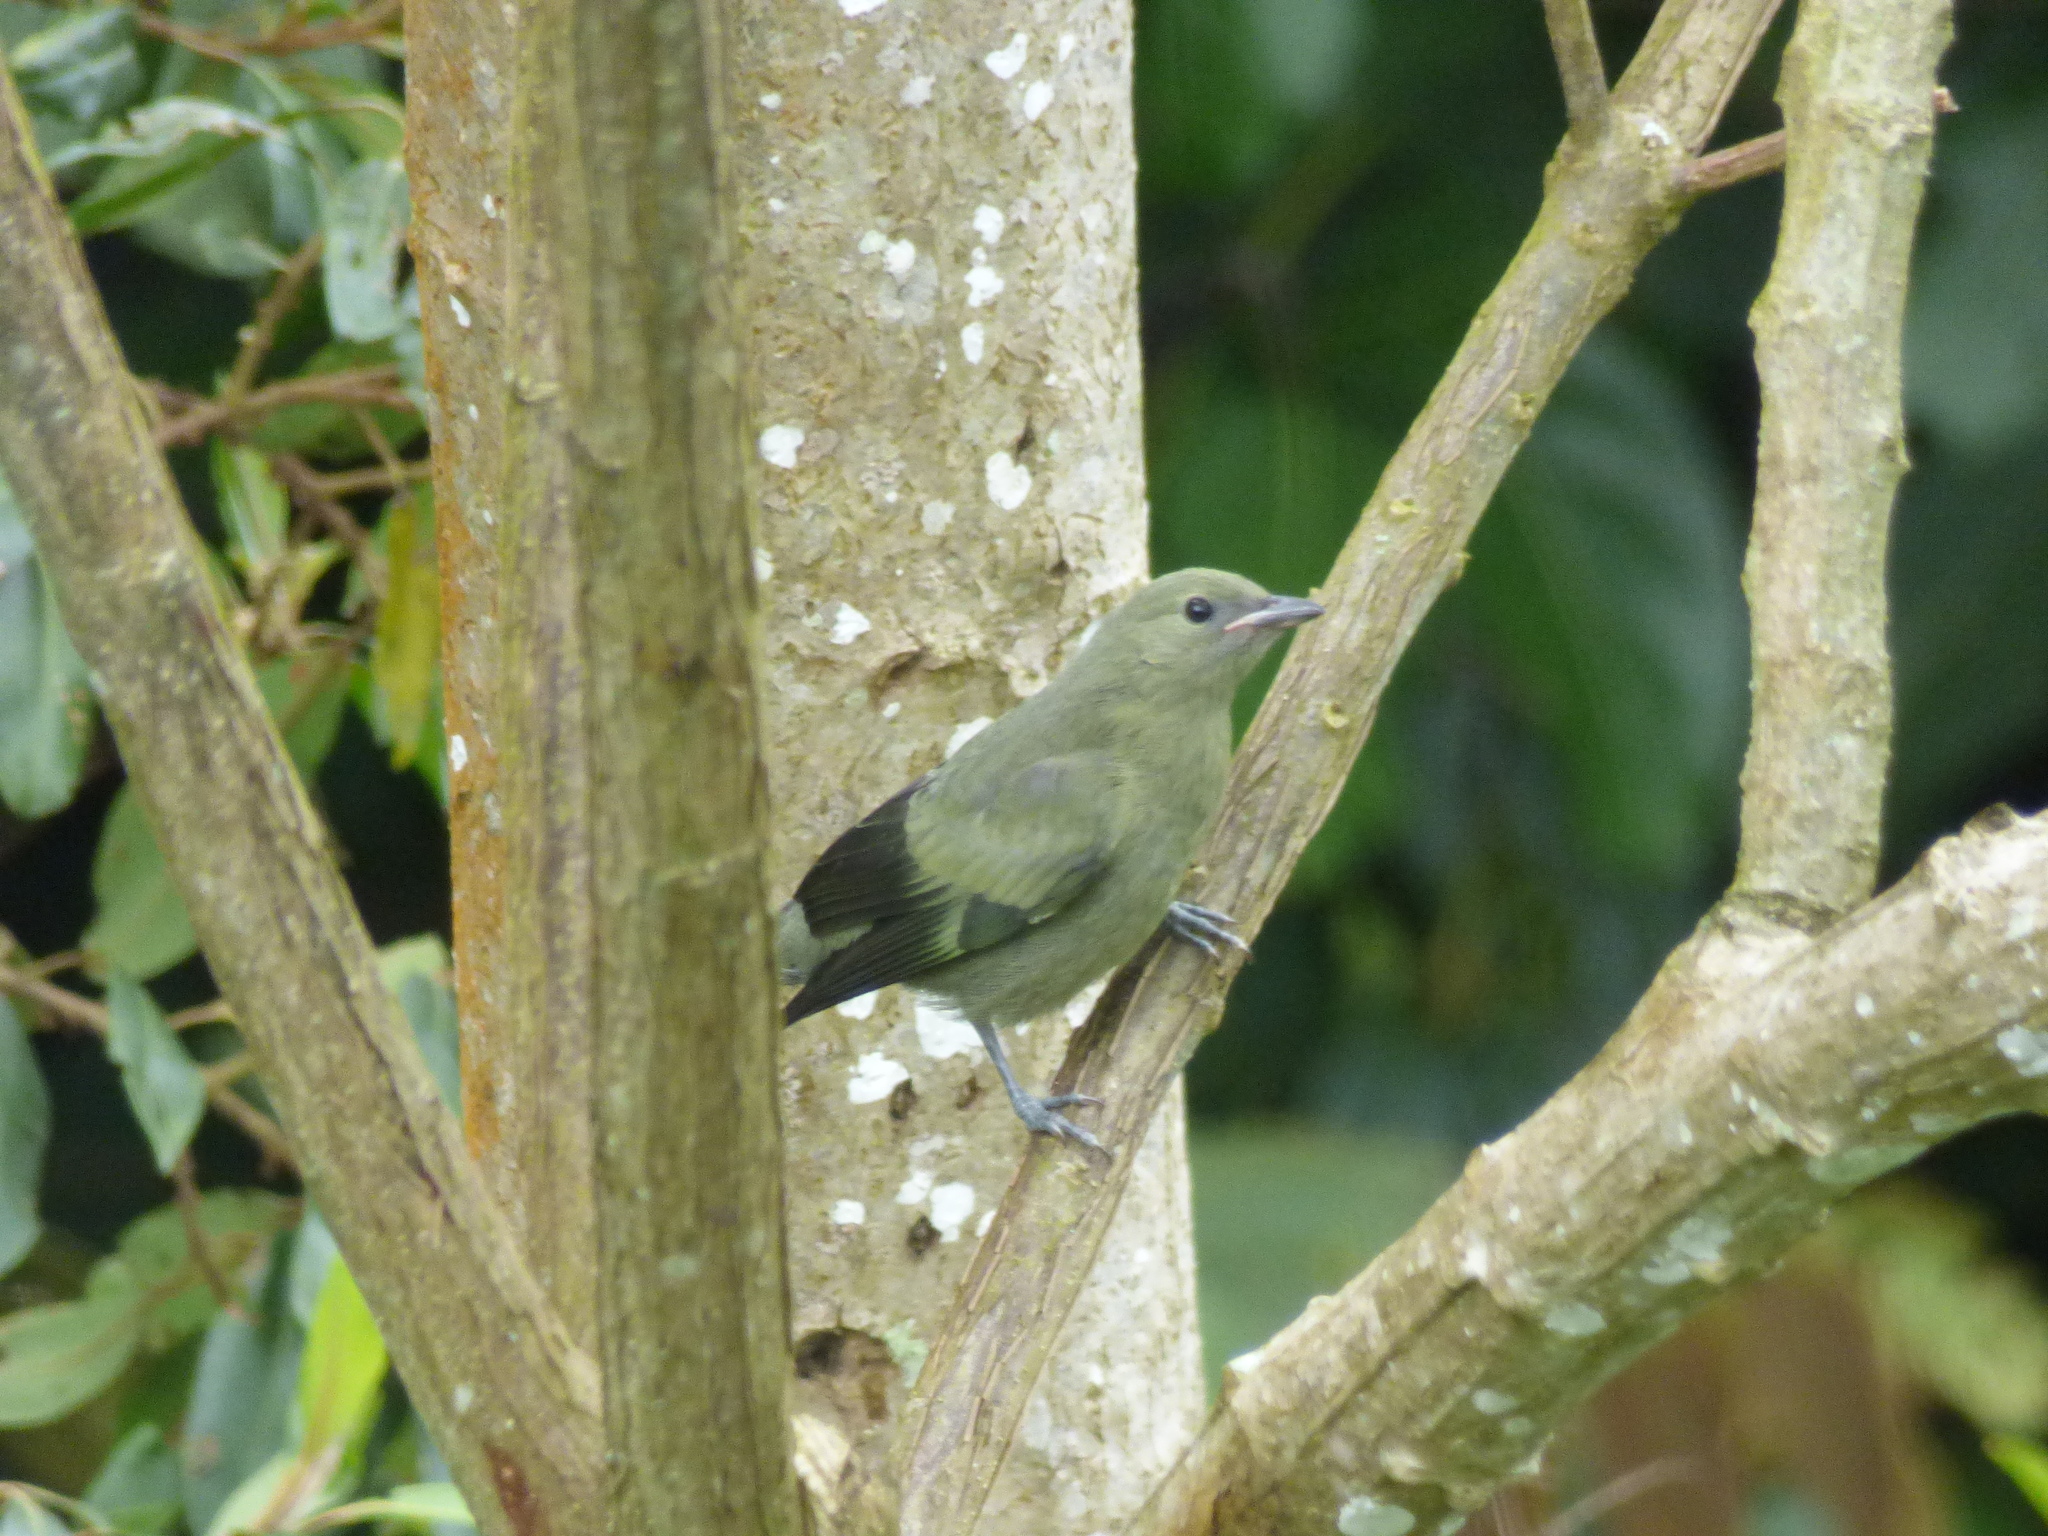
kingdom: Animalia
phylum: Chordata
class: Aves
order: Passeriformes
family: Thraupidae
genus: Thraupis
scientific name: Thraupis palmarum
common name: Palm tanager
